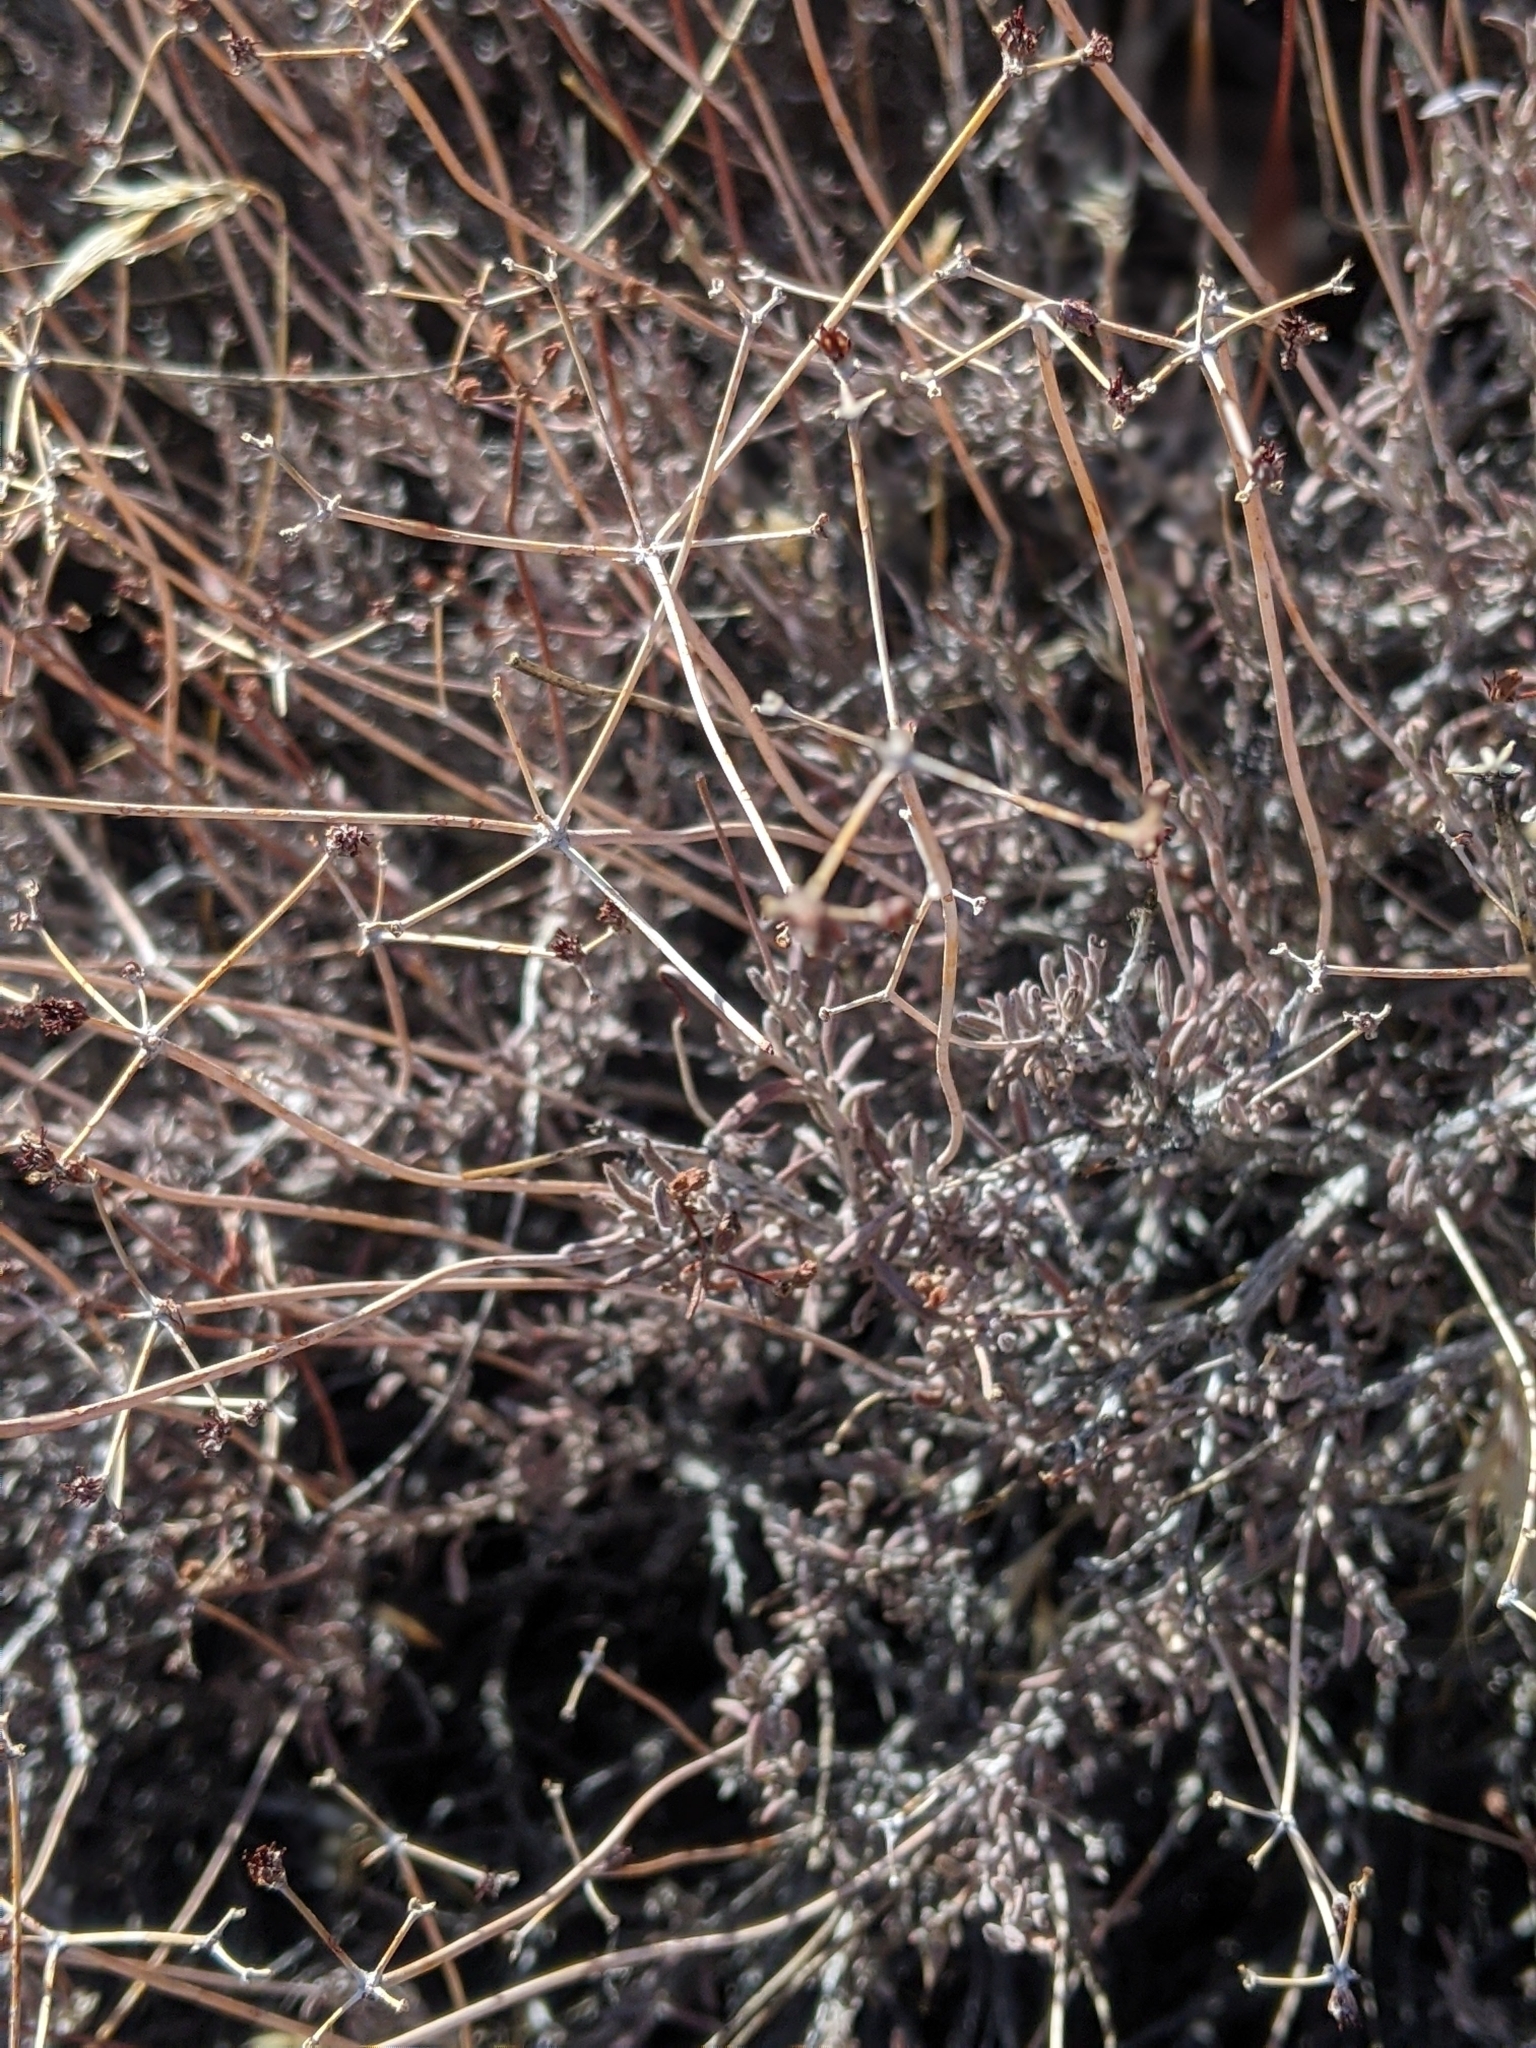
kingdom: Plantae
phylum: Tracheophyta
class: Magnoliopsida
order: Caryophyllales
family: Polygonaceae
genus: Eriogonum
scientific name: Eriogonum fasciculatum
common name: California wild buckwheat
